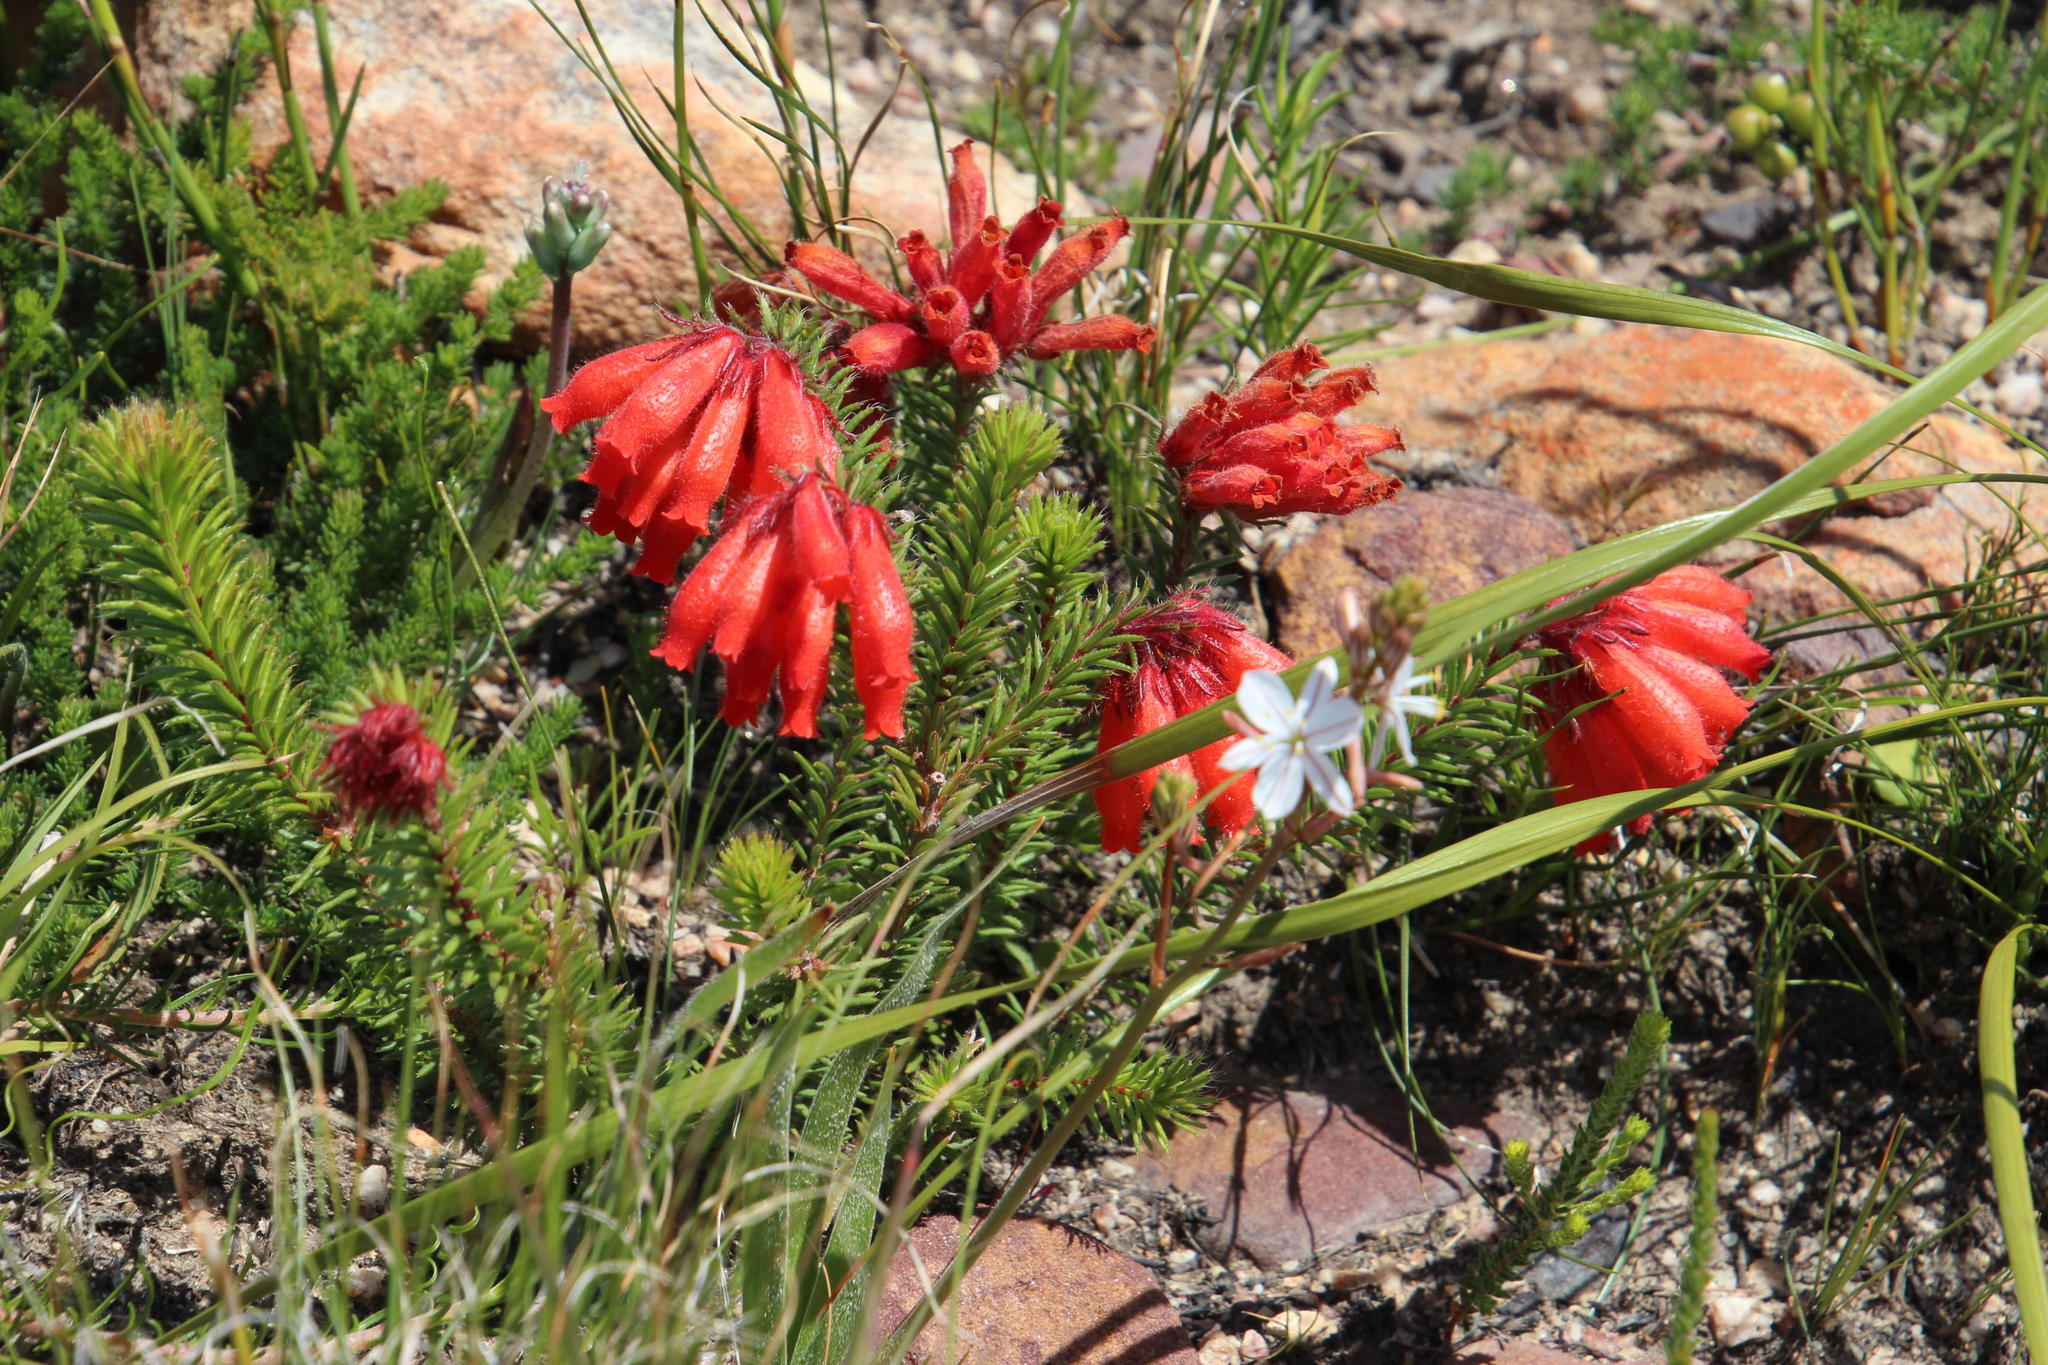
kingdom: Plantae
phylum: Tracheophyta
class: Magnoliopsida
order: Ericales
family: Ericaceae
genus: Erica
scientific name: Erica cerinthoides
